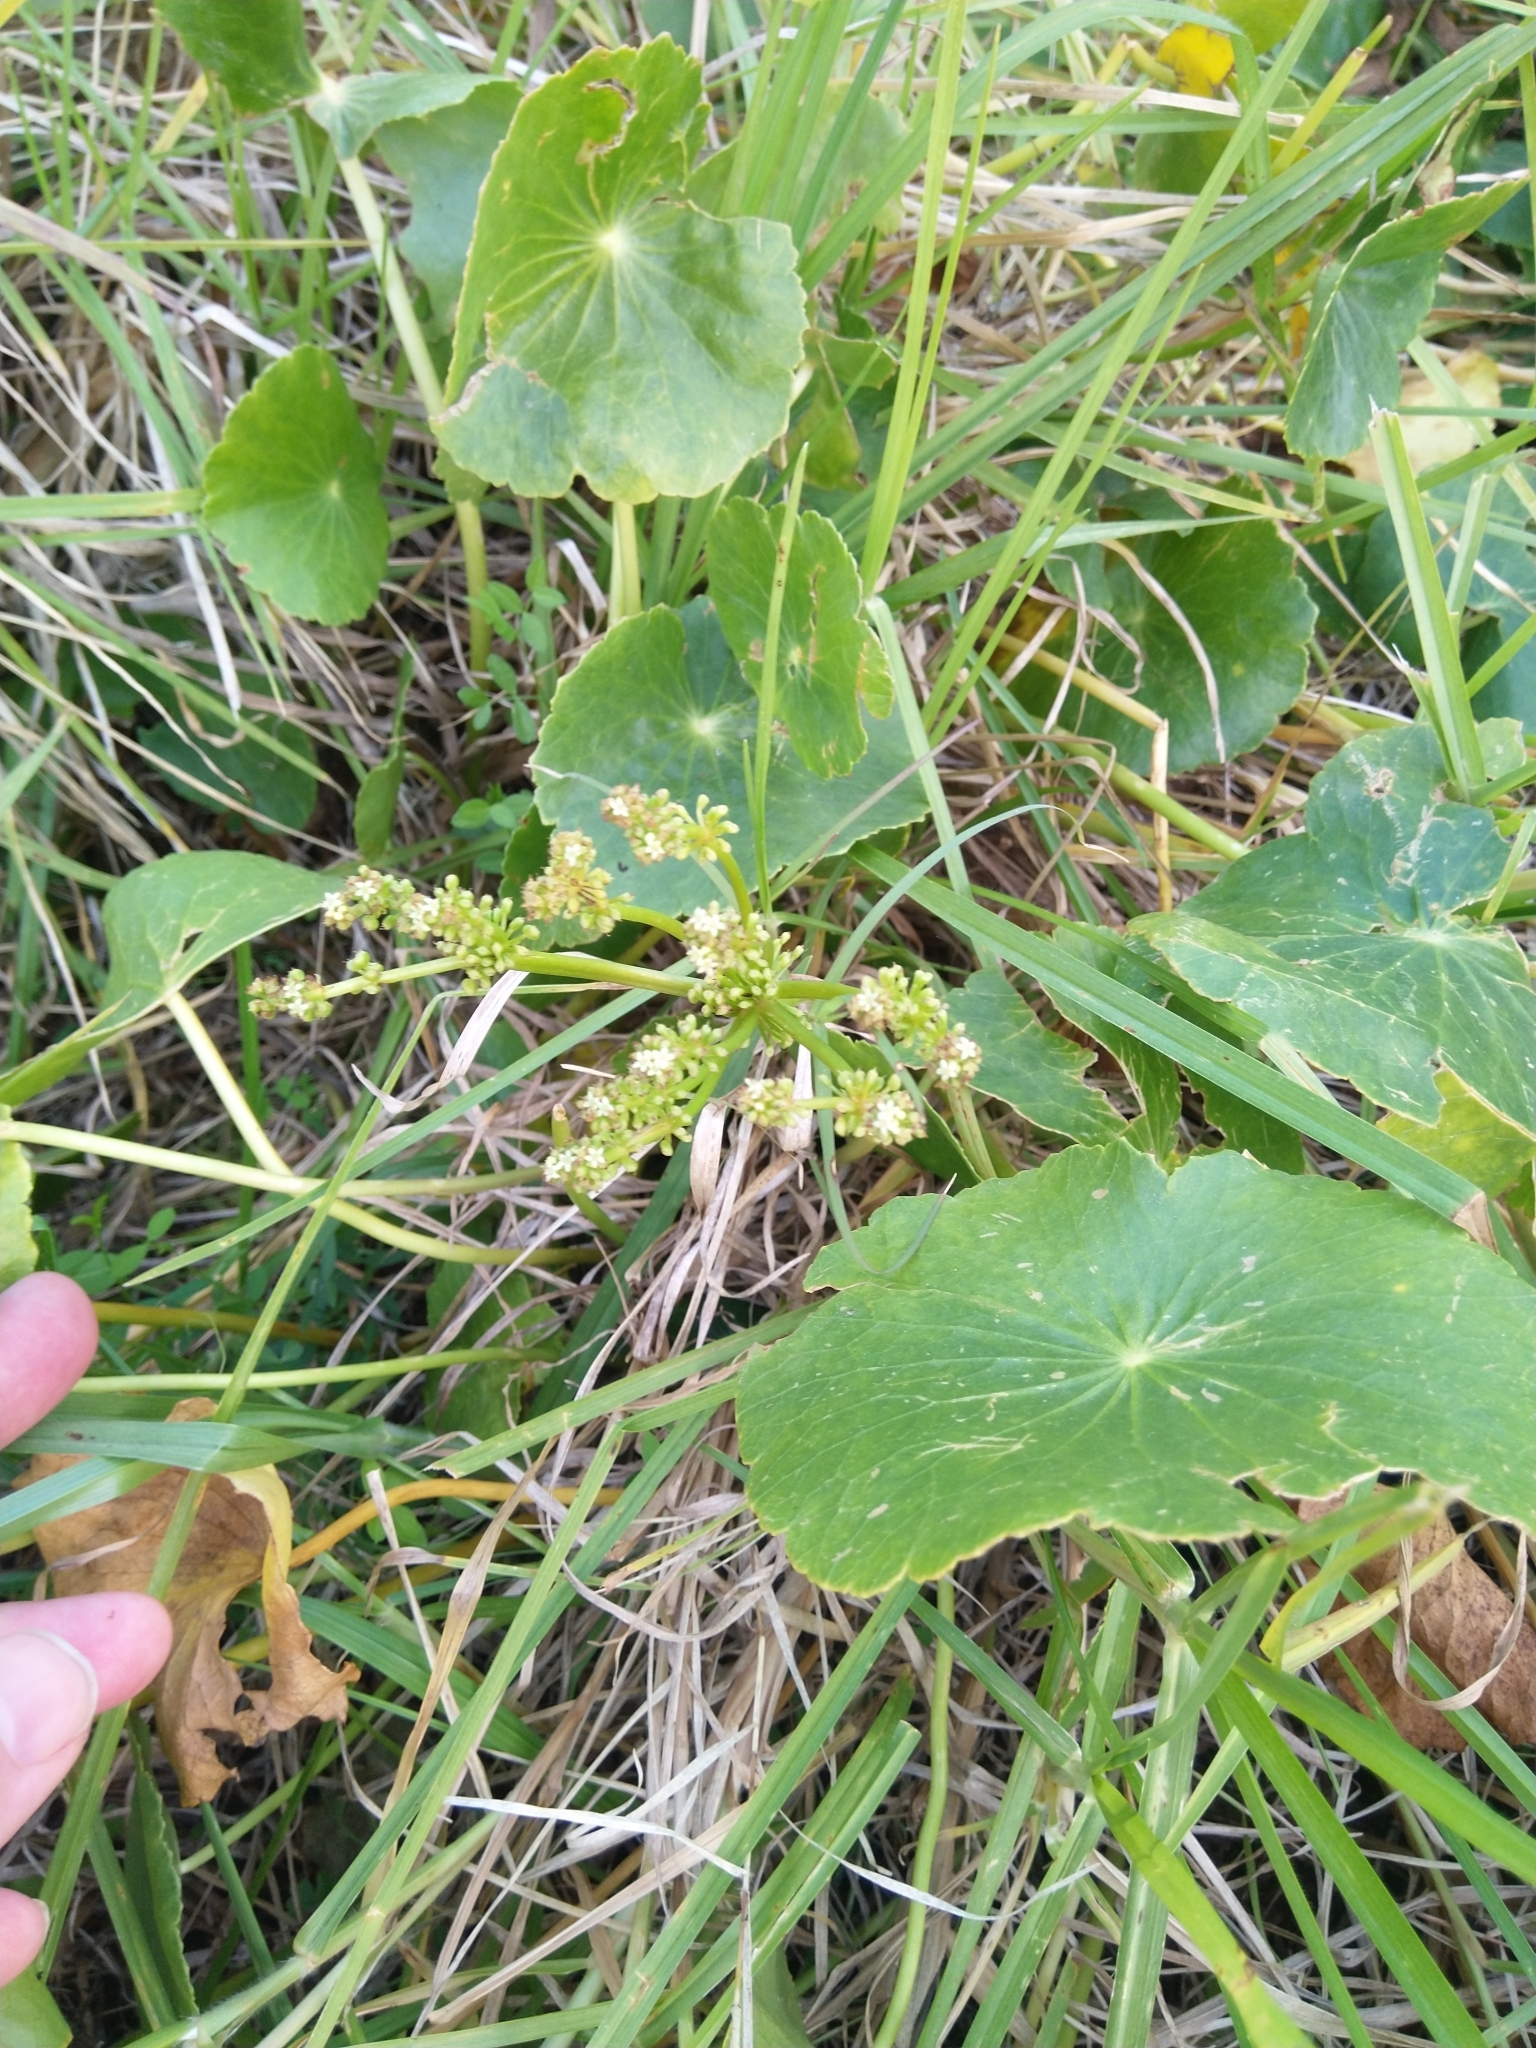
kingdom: Plantae
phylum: Tracheophyta
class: Magnoliopsida
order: Apiales
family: Araliaceae
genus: Hydrocotyle
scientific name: Hydrocotyle bonariensis
